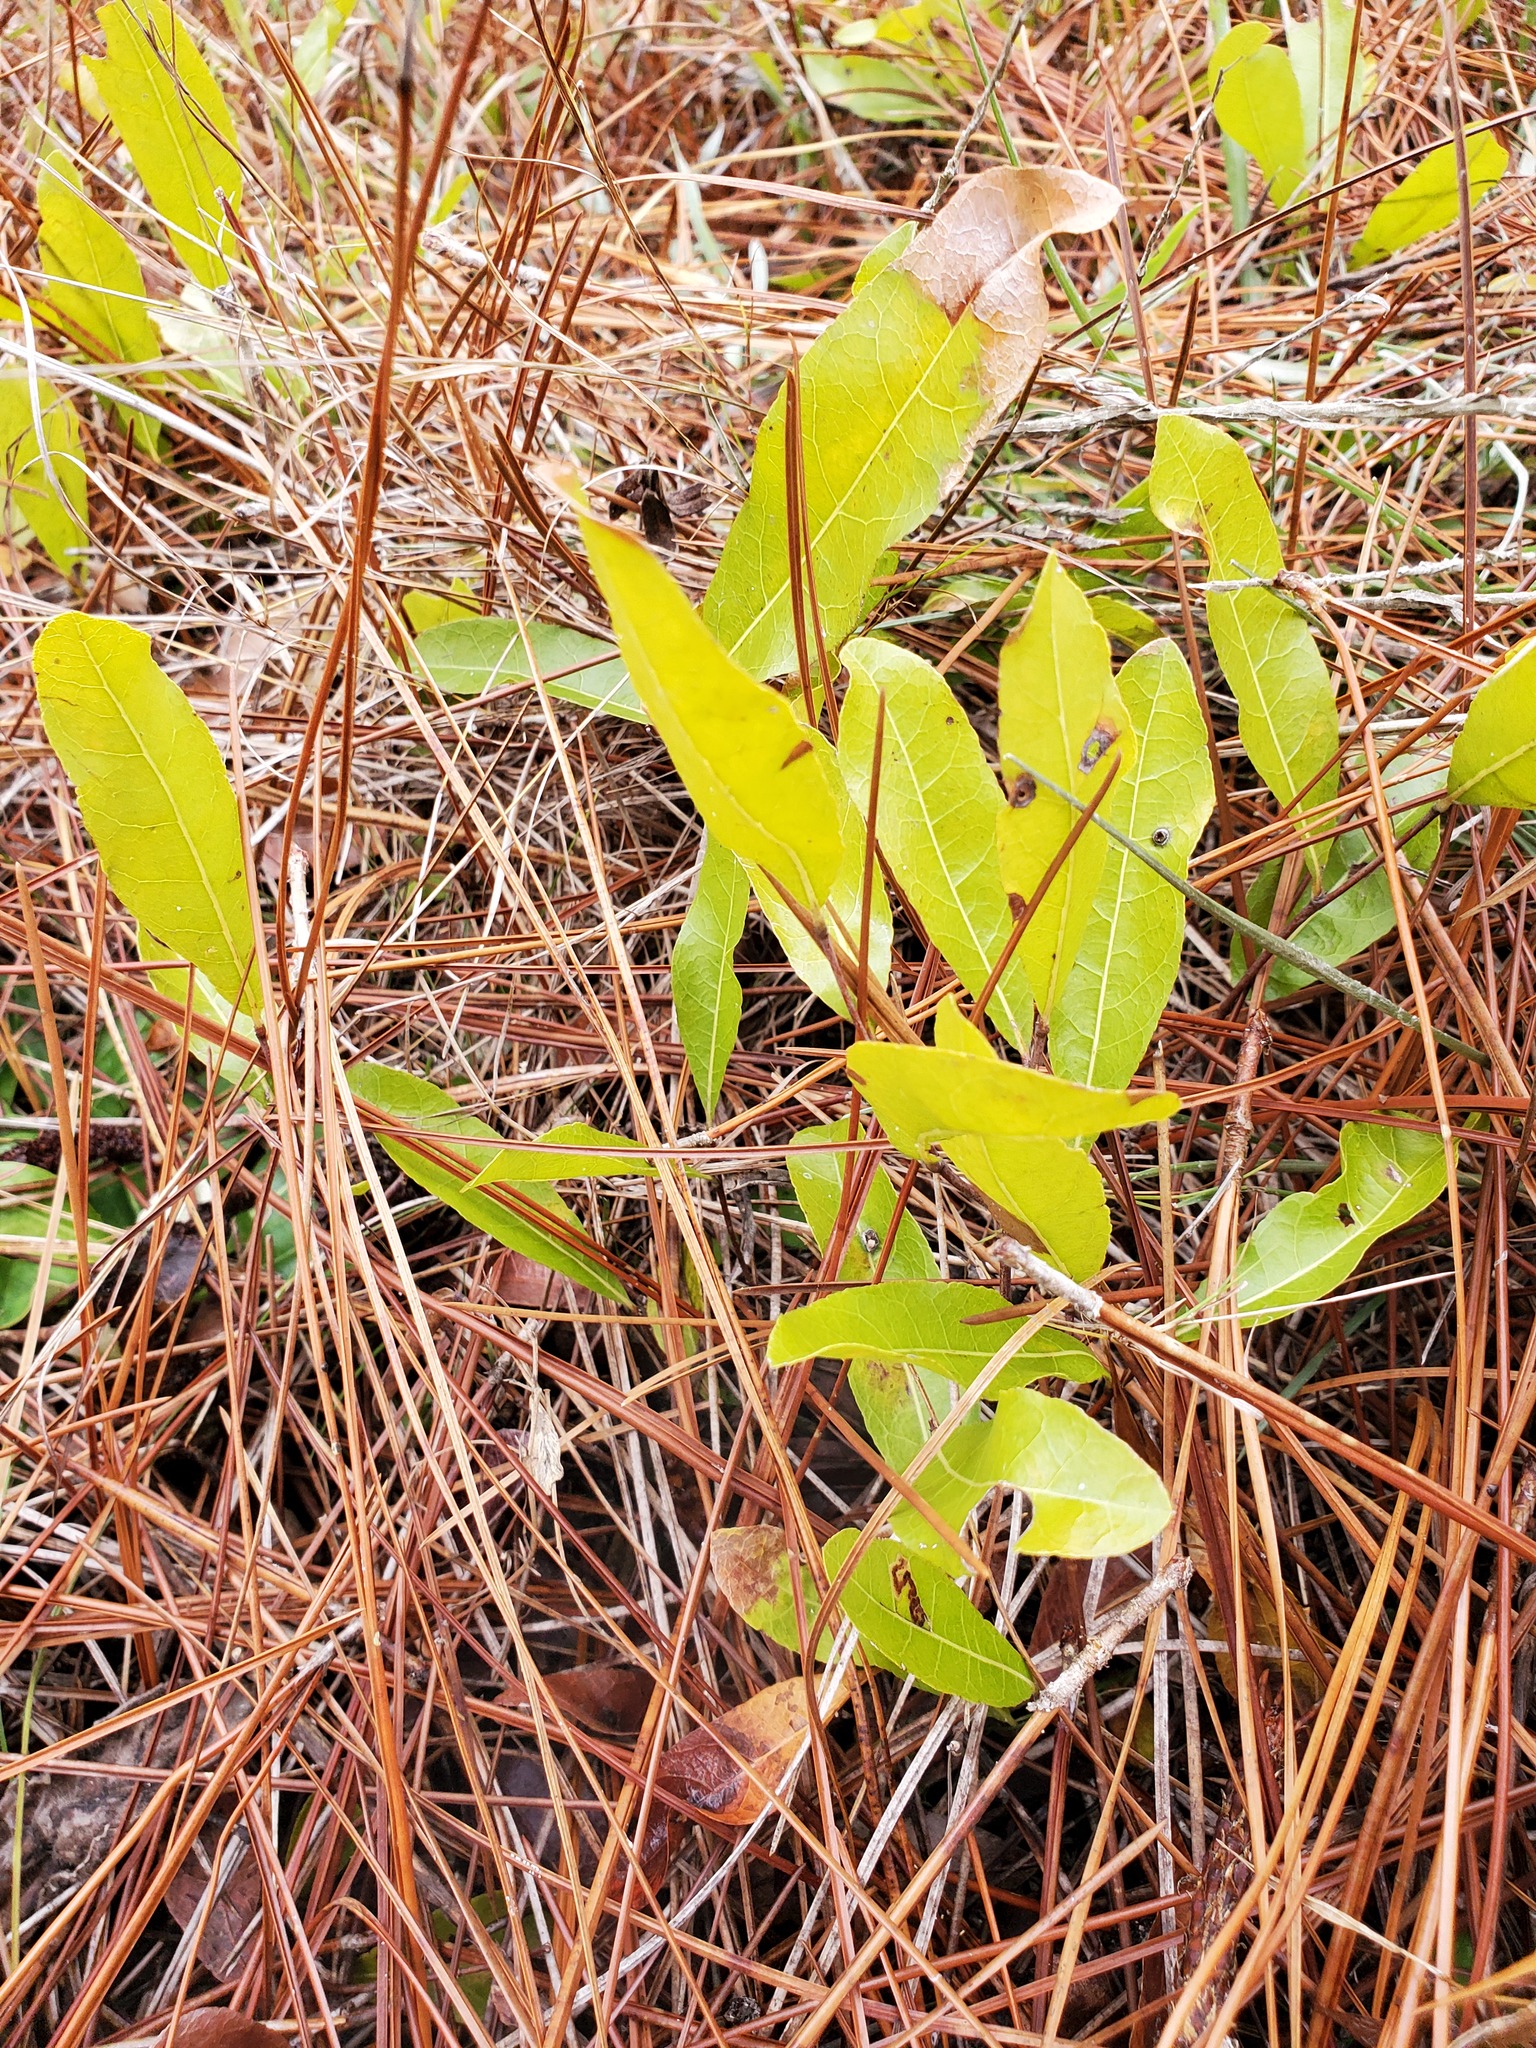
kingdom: Plantae
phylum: Tracheophyta
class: Magnoliopsida
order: Malpighiales
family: Chrysobalanaceae
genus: Geobalanus
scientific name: Geobalanus oblongifolius
